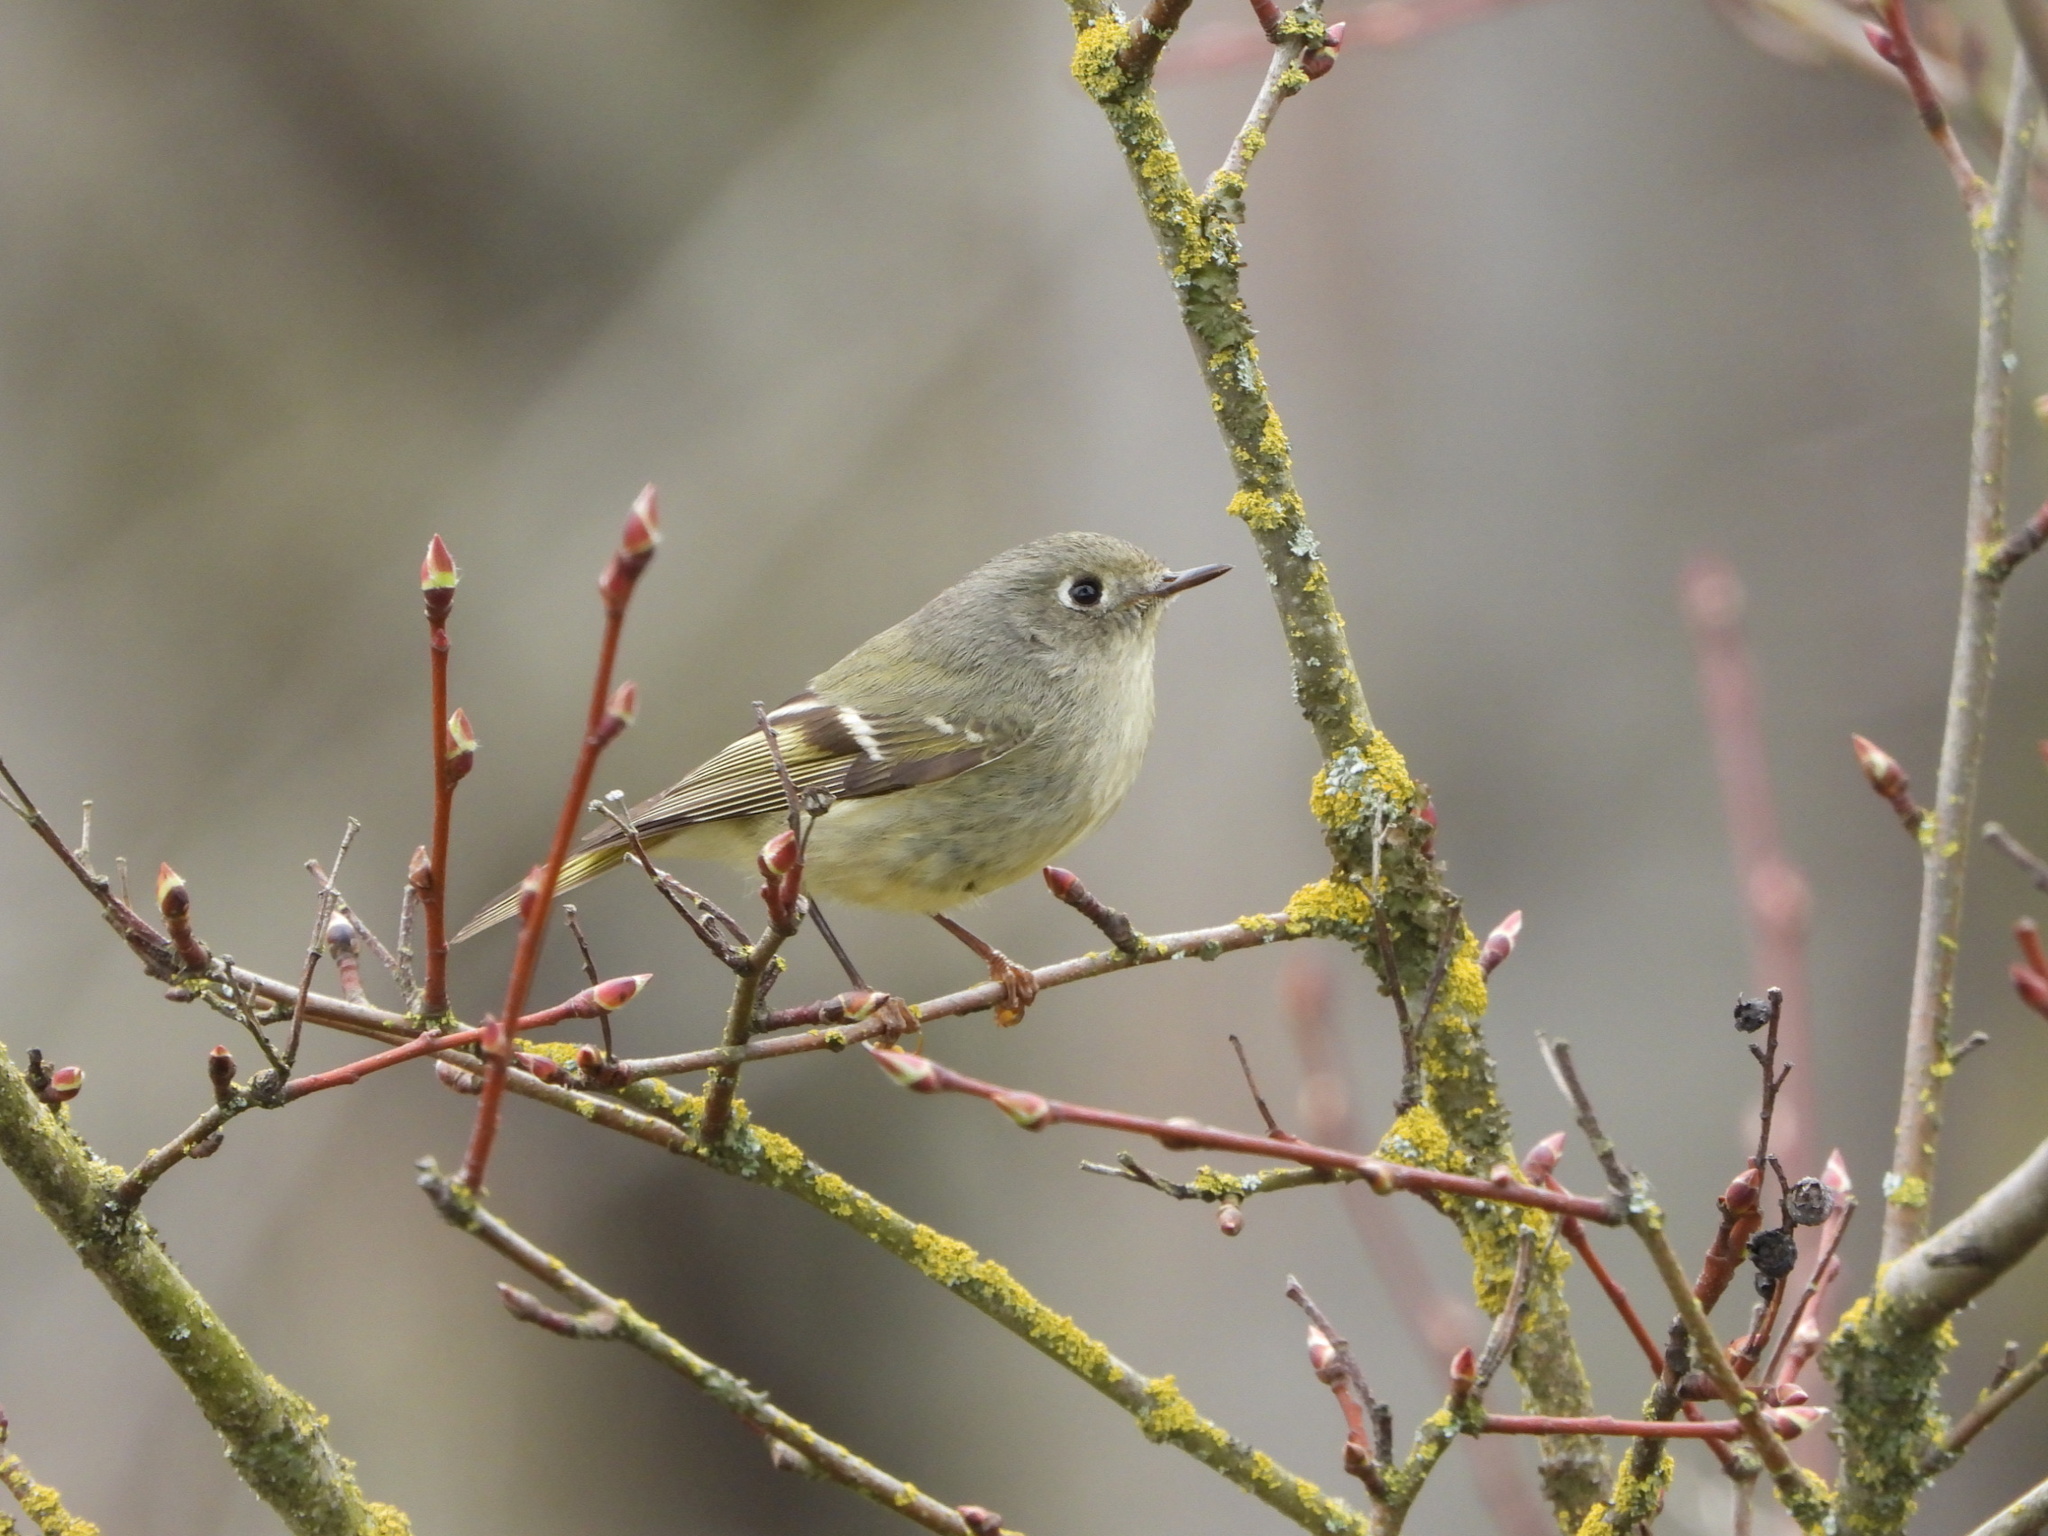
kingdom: Animalia
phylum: Chordata
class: Aves
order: Passeriformes
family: Regulidae
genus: Regulus
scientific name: Regulus calendula
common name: Ruby-crowned kinglet
